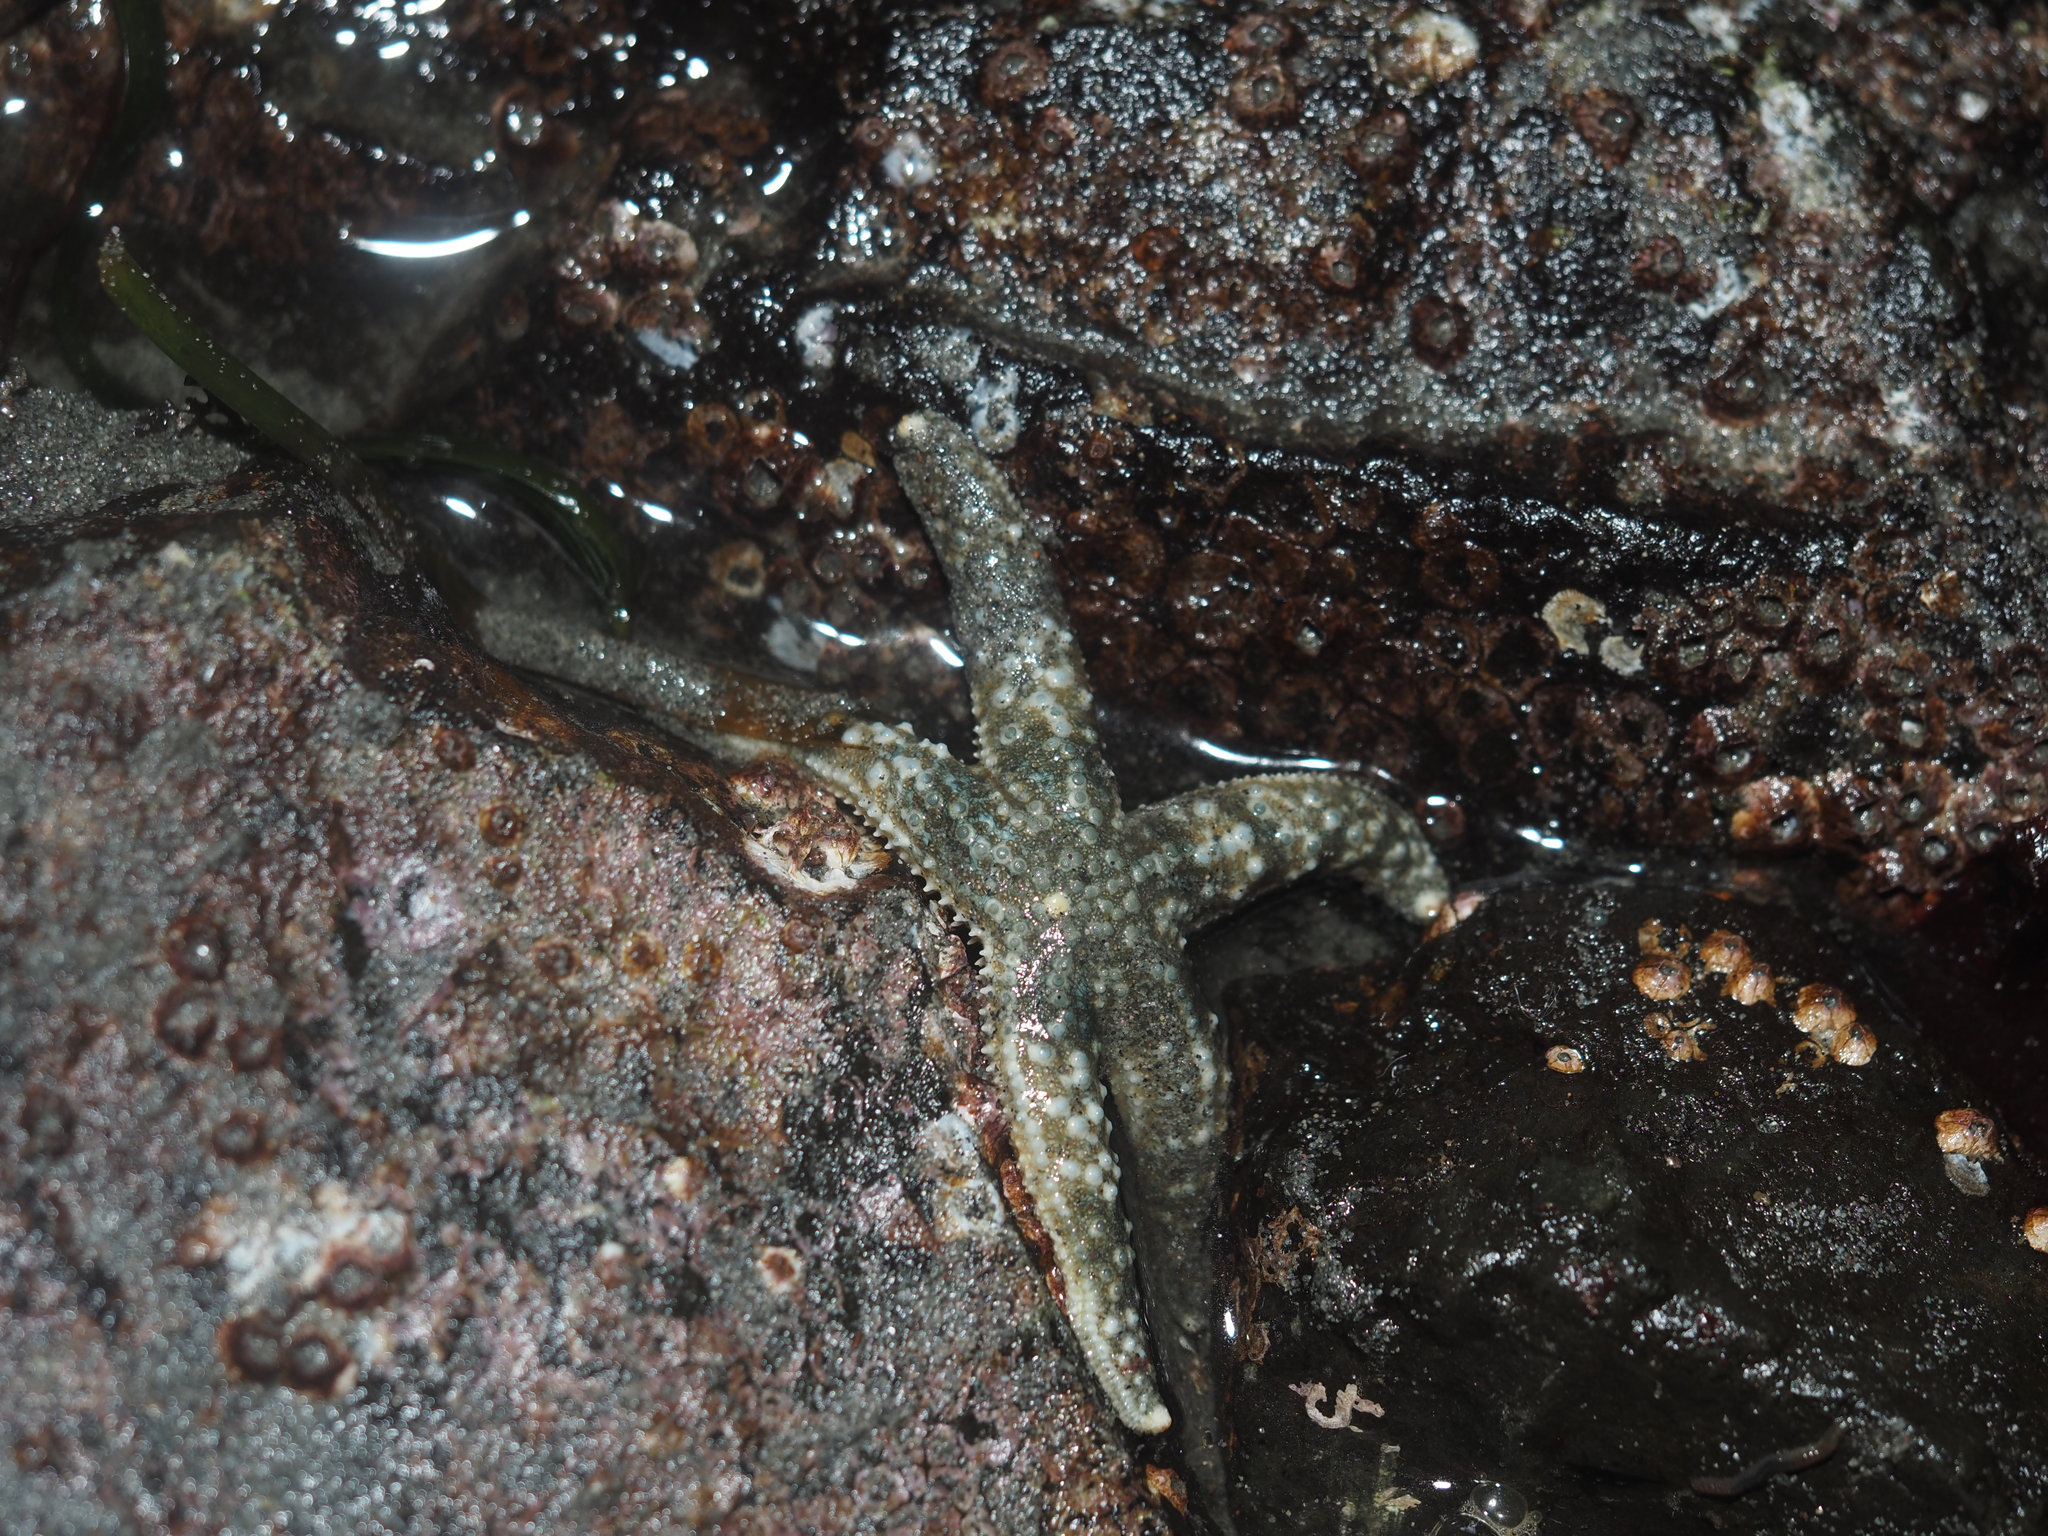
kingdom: Animalia
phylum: Echinodermata
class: Asteroidea
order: Forcipulatida
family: Asteriidae
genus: Evasterias
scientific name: Evasterias troschelii
